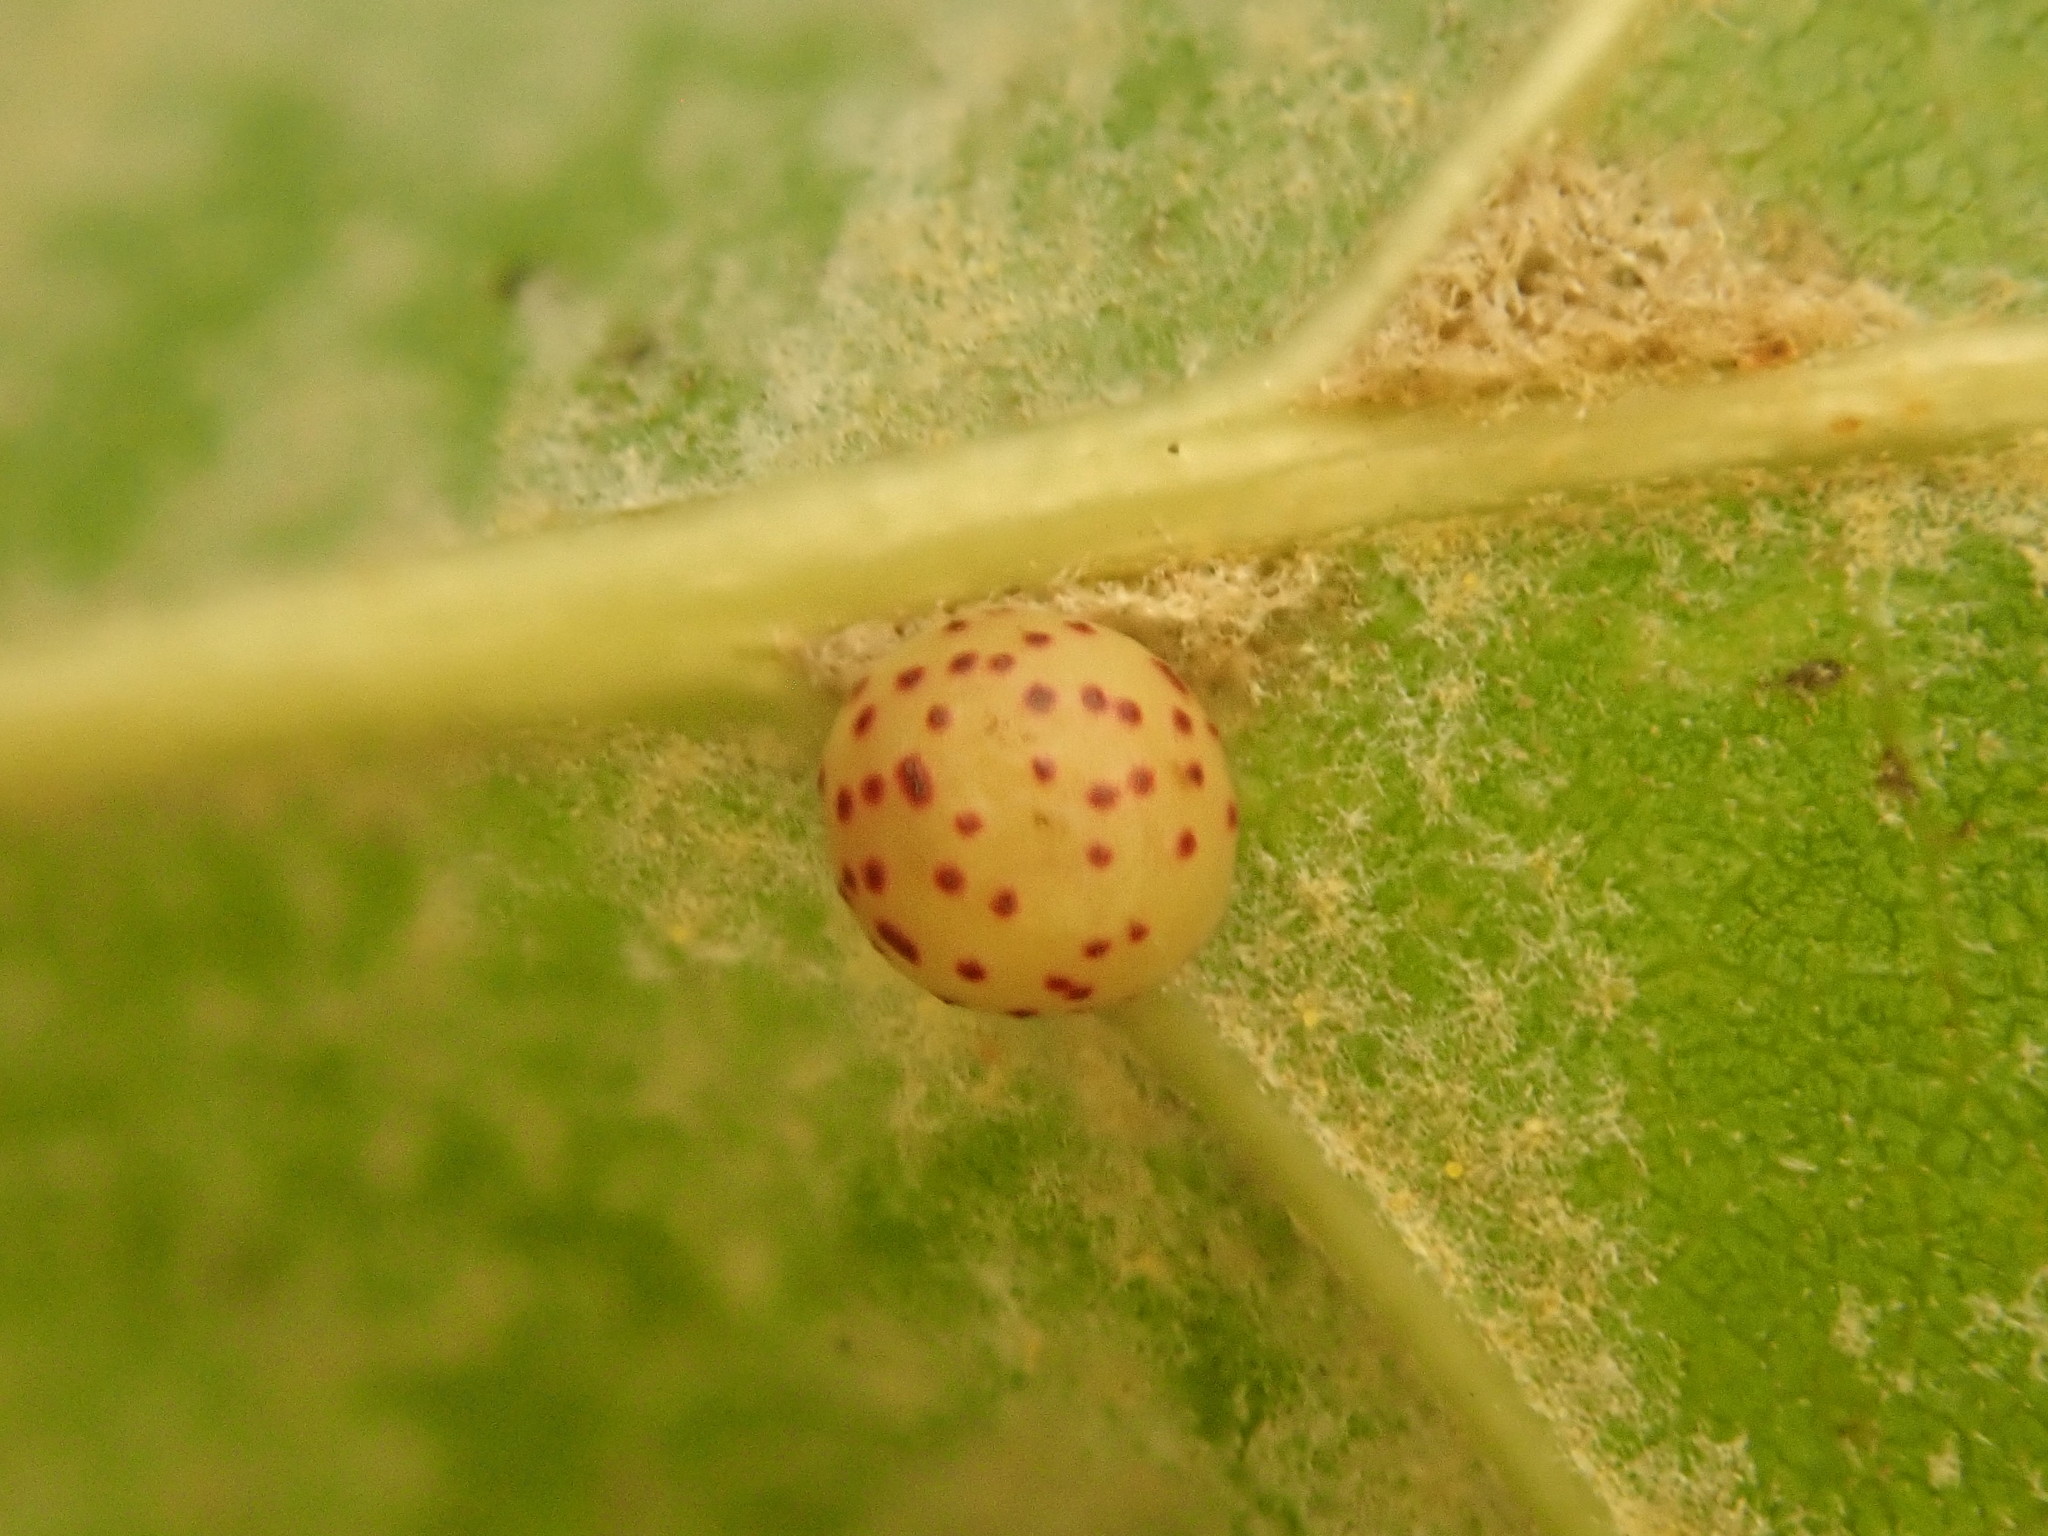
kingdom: Animalia
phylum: Arthropoda
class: Insecta
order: Hymenoptera
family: Cynipidae
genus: Zopheroteras
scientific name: Zopheroteras
